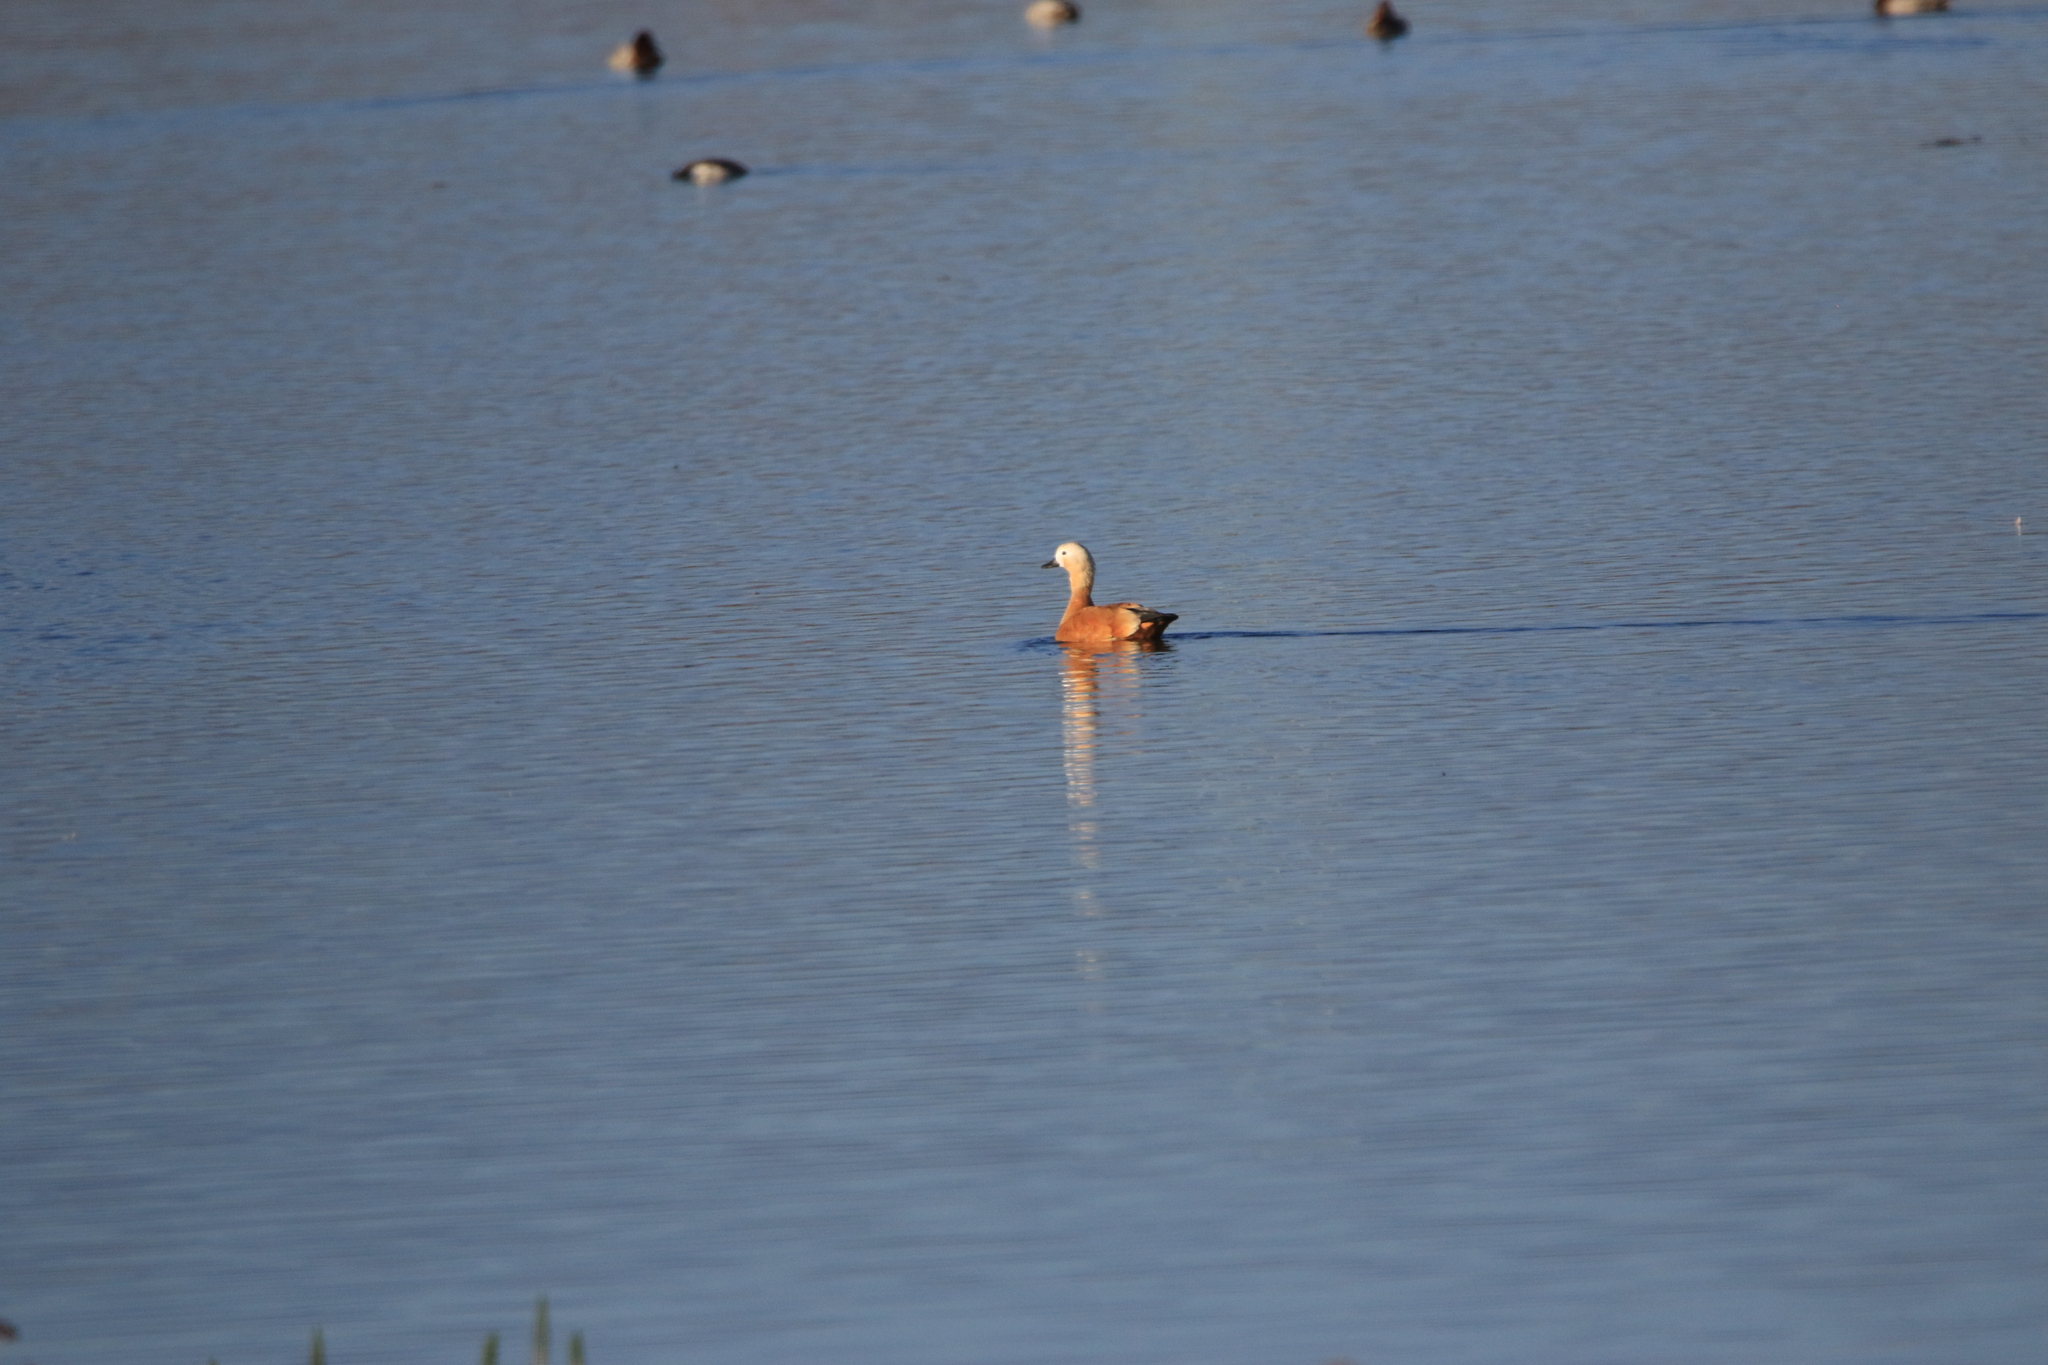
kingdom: Animalia
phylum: Chordata
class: Aves
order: Anseriformes
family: Anatidae
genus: Tadorna
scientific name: Tadorna ferruginea
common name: Ruddy shelduck
